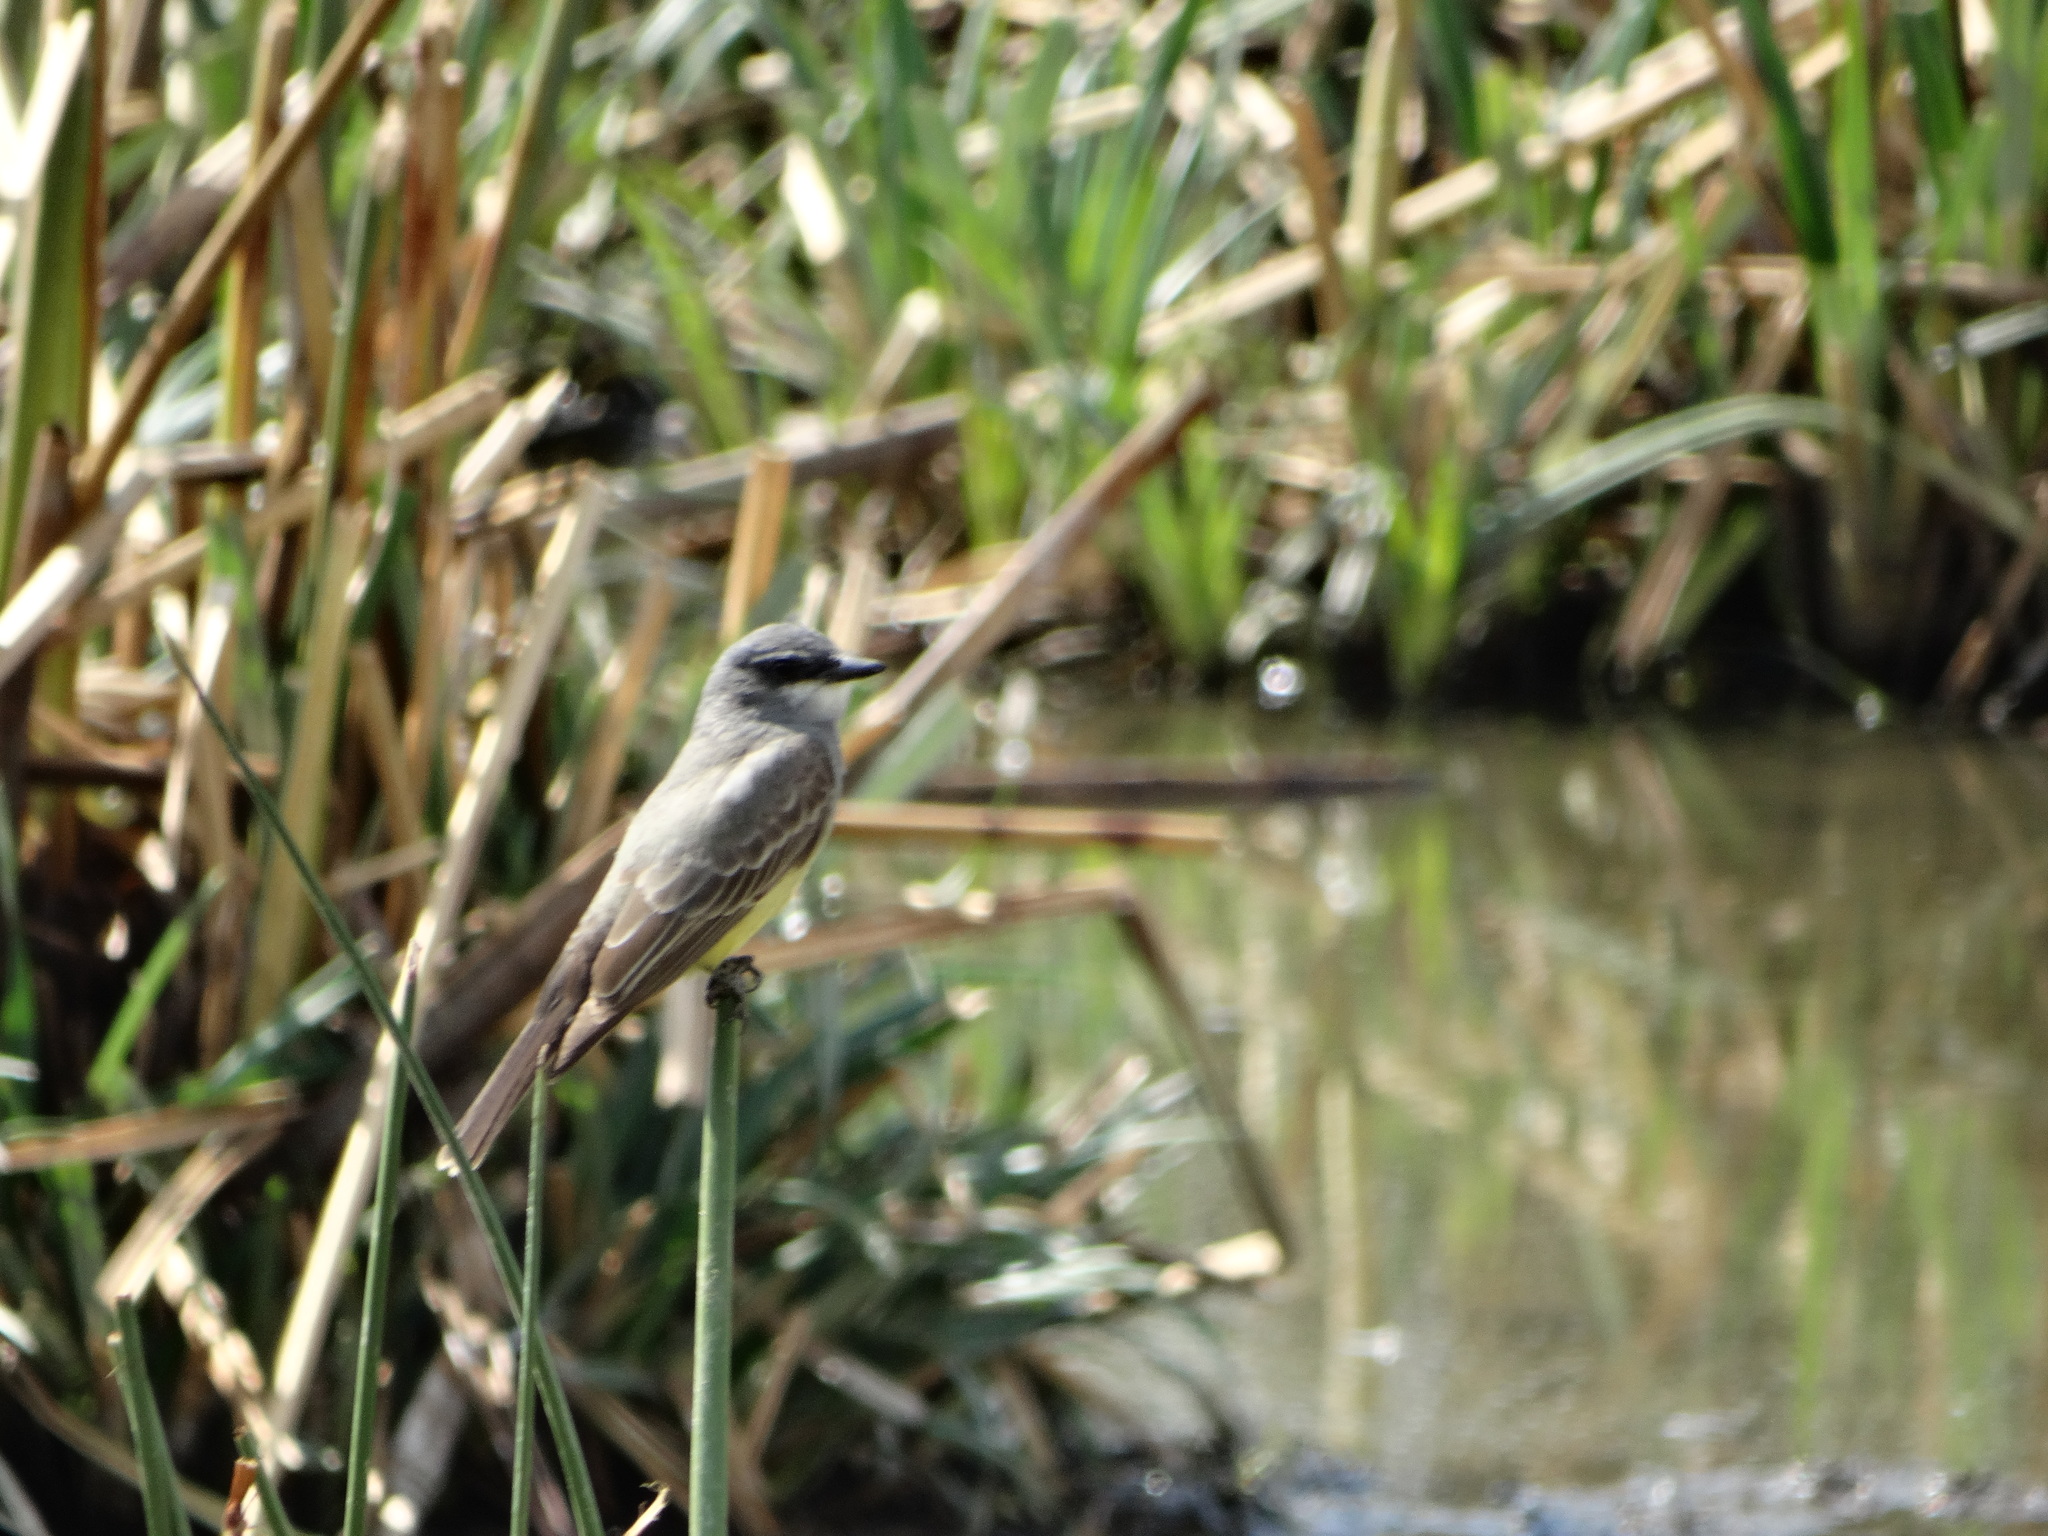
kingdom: Animalia
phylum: Chordata
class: Aves
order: Passeriformes
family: Tyrannidae
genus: Tyrannus
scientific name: Tyrannus vociferans
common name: Cassin's kingbird
